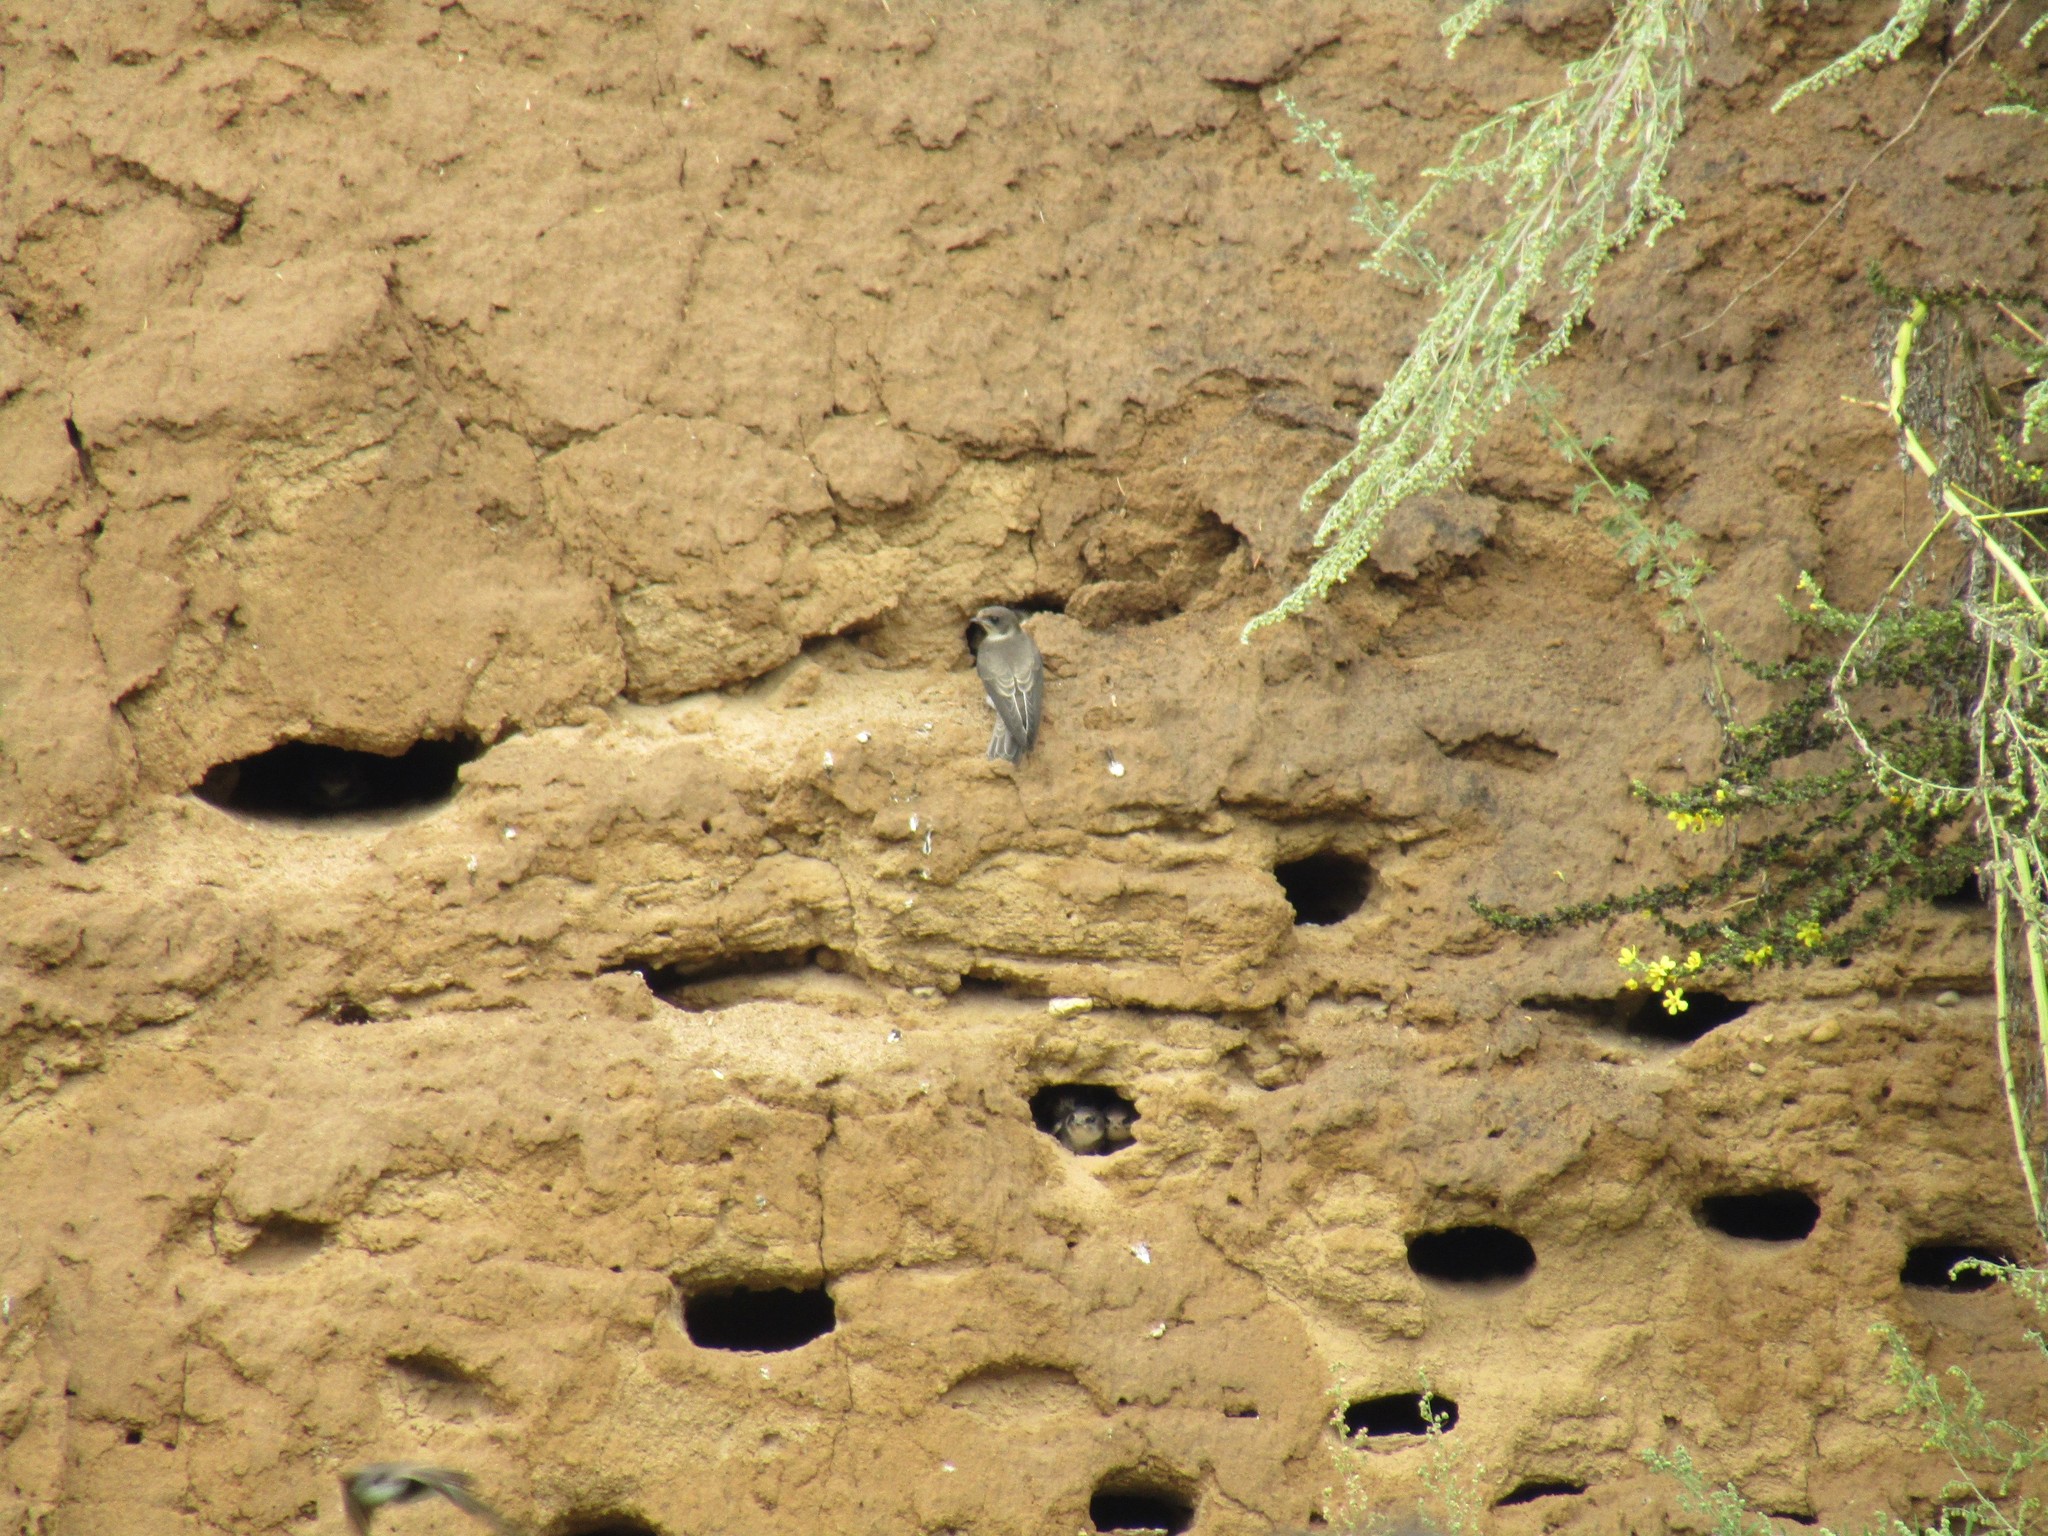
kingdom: Animalia
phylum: Chordata
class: Aves
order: Passeriformes
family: Hirundinidae
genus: Riparia
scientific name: Riparia riparia
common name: Sand martin
